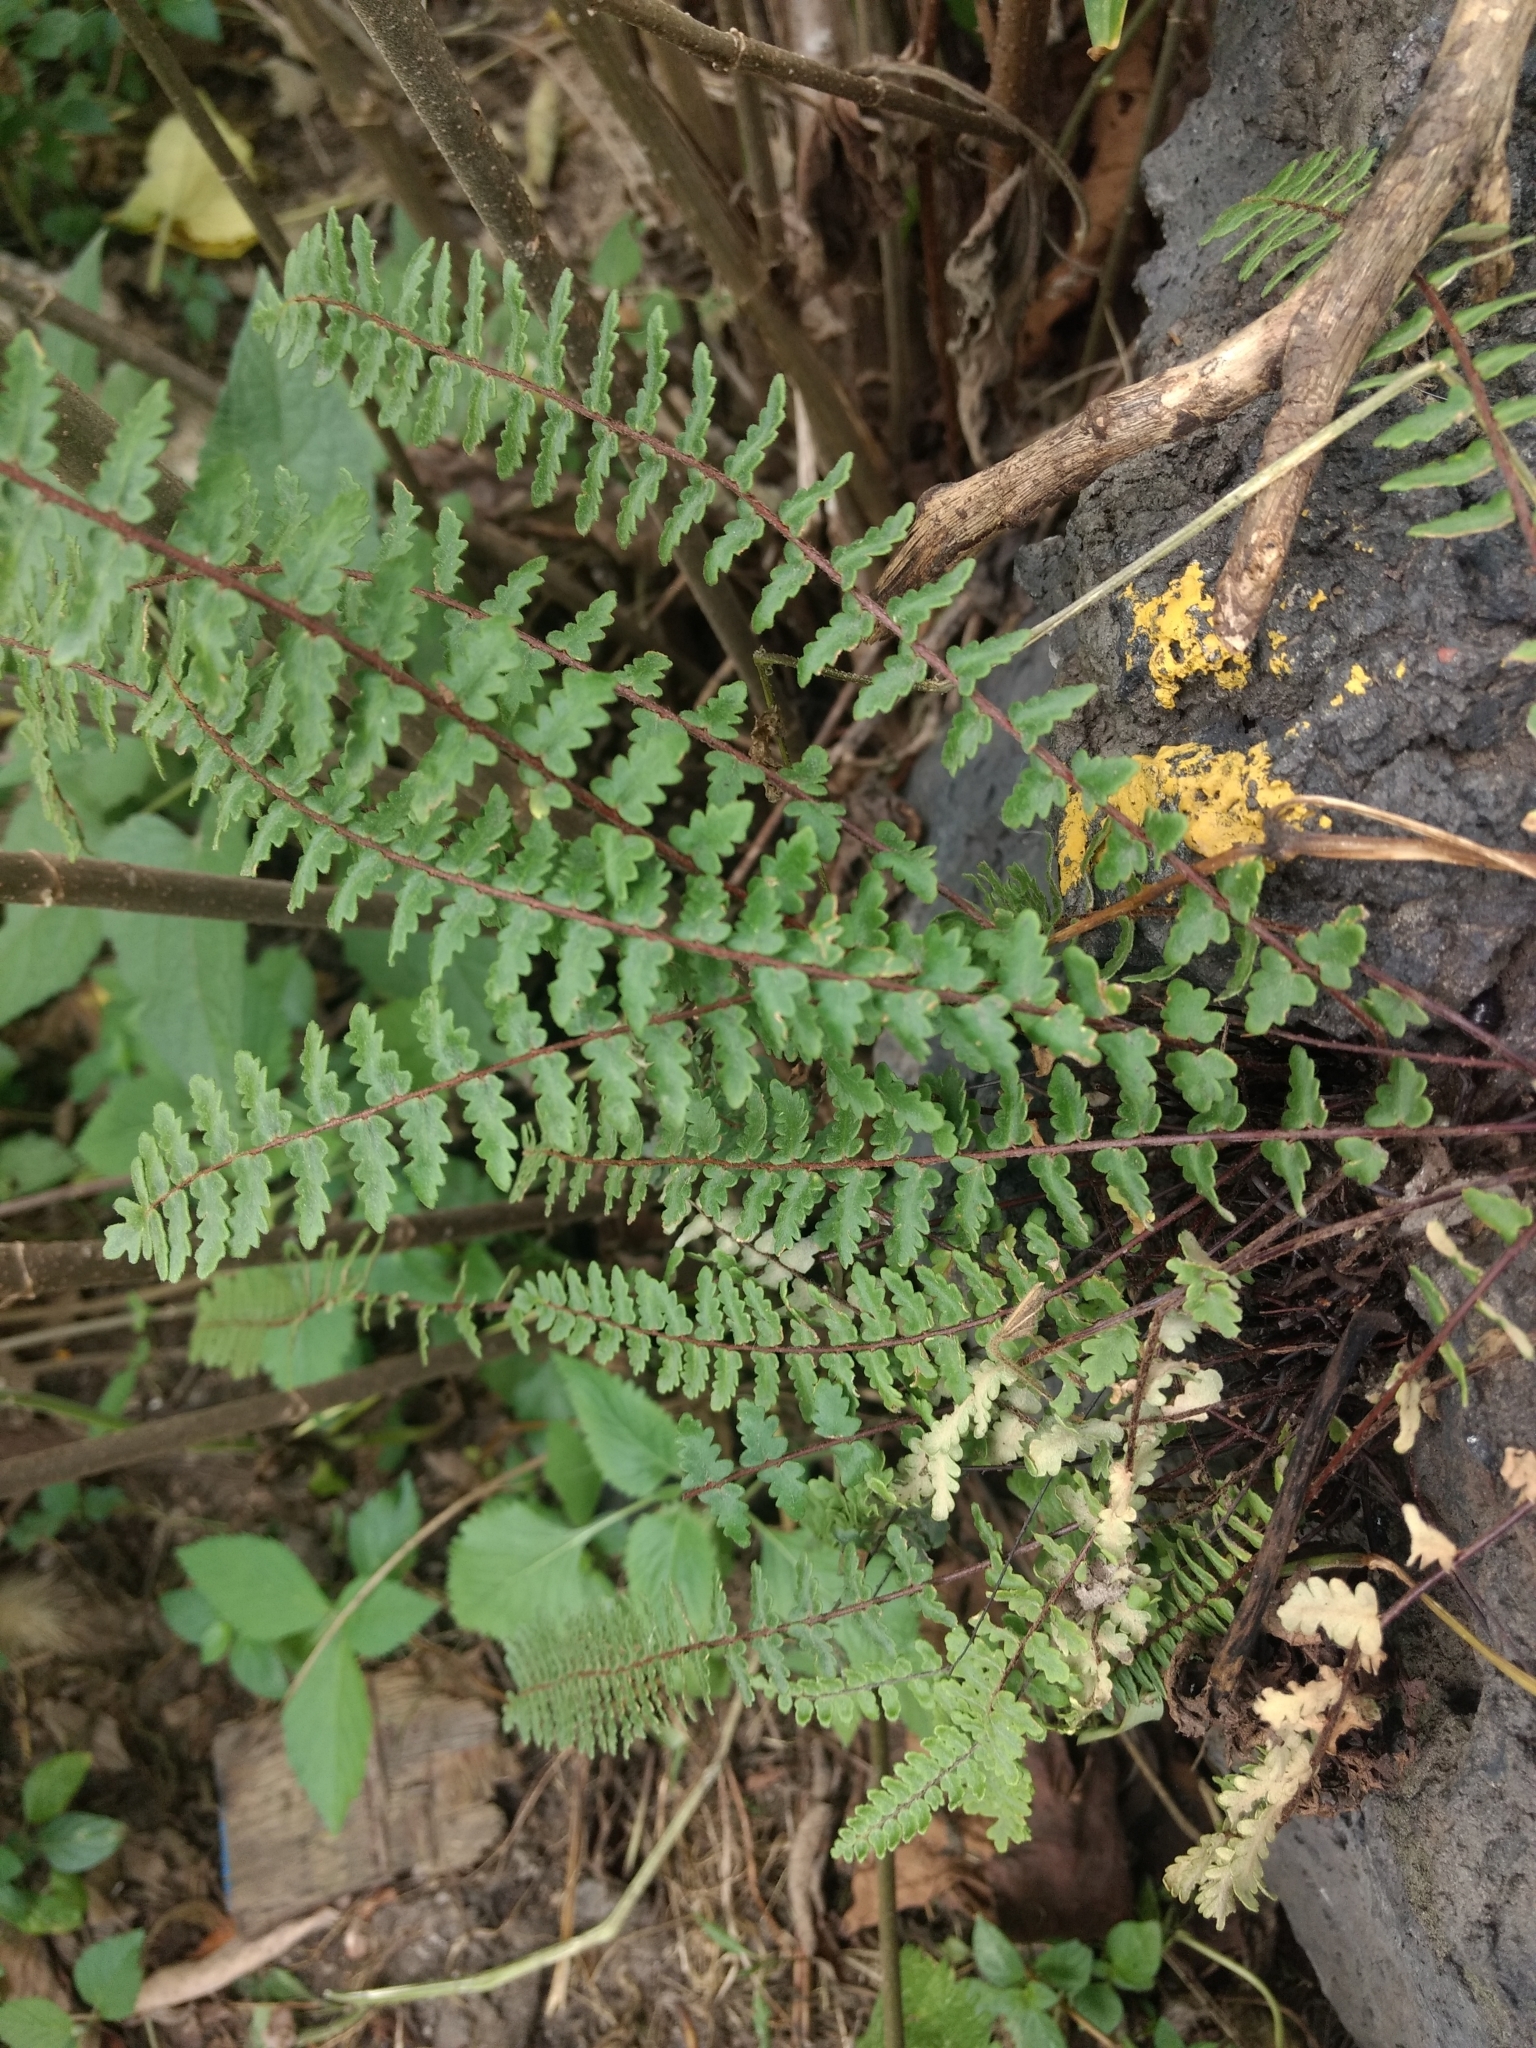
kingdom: Plantae
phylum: Tracheophyta
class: Polypodiopsida
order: Polypodiales
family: Pteridaceae
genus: Myriopteris
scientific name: Myriopteris aurea
